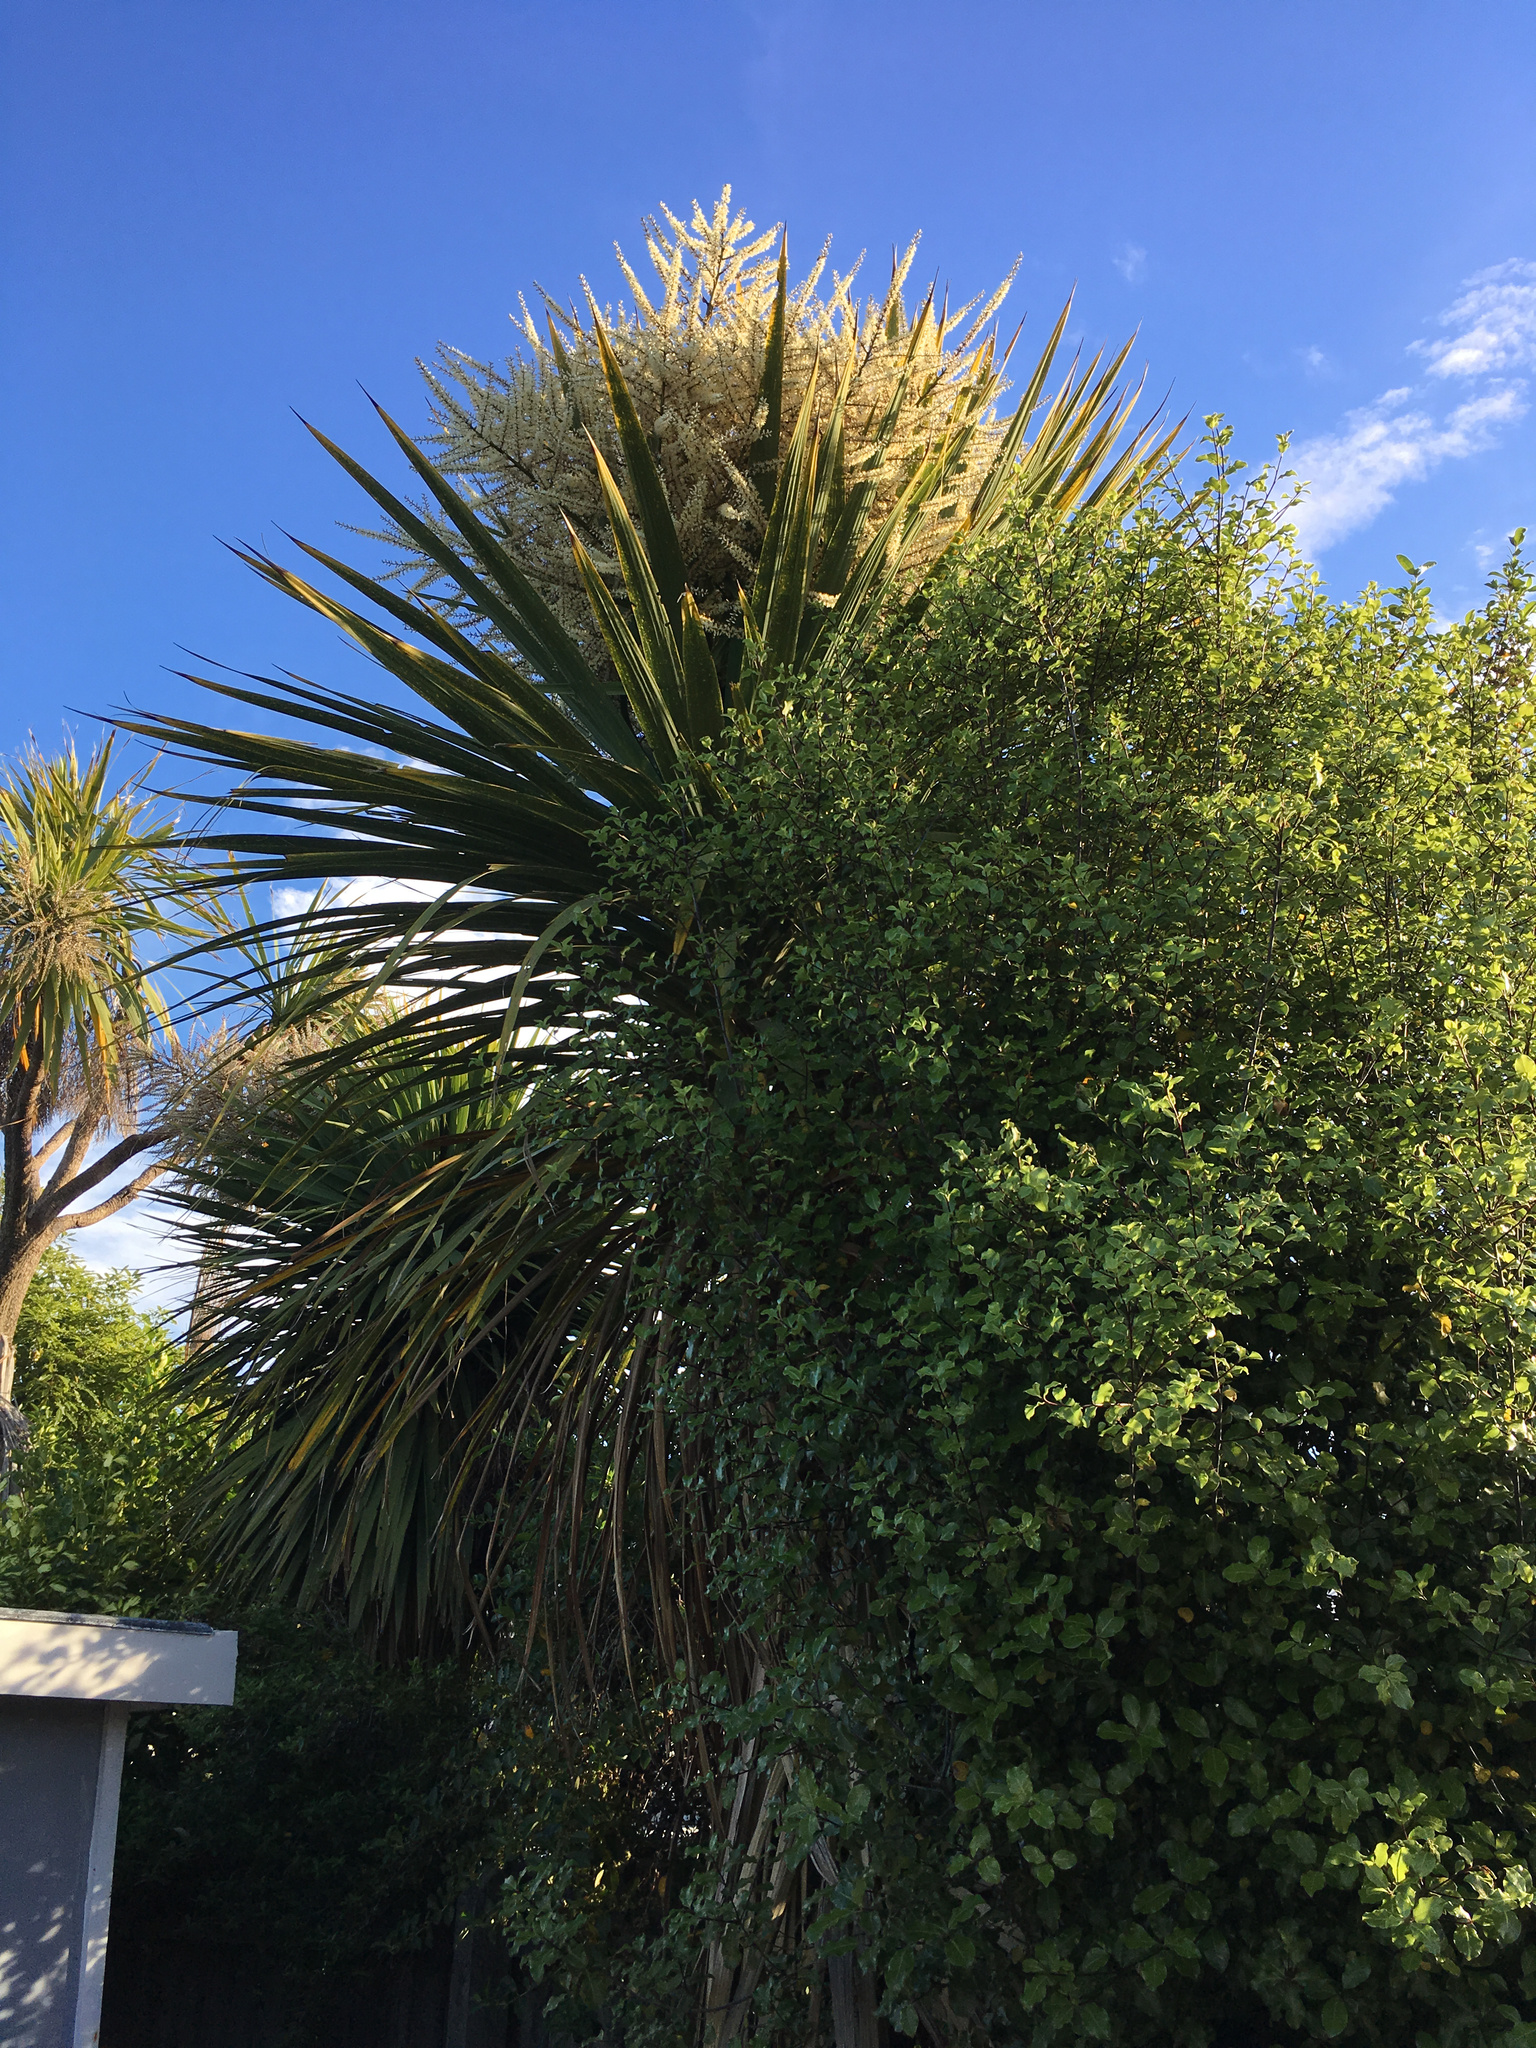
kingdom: Plantae
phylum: Tracheophyta
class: Liliopsida
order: Asparagales
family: Asparagaceae
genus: Cordyline
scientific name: Cordyline australis
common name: Cabbage-palm
